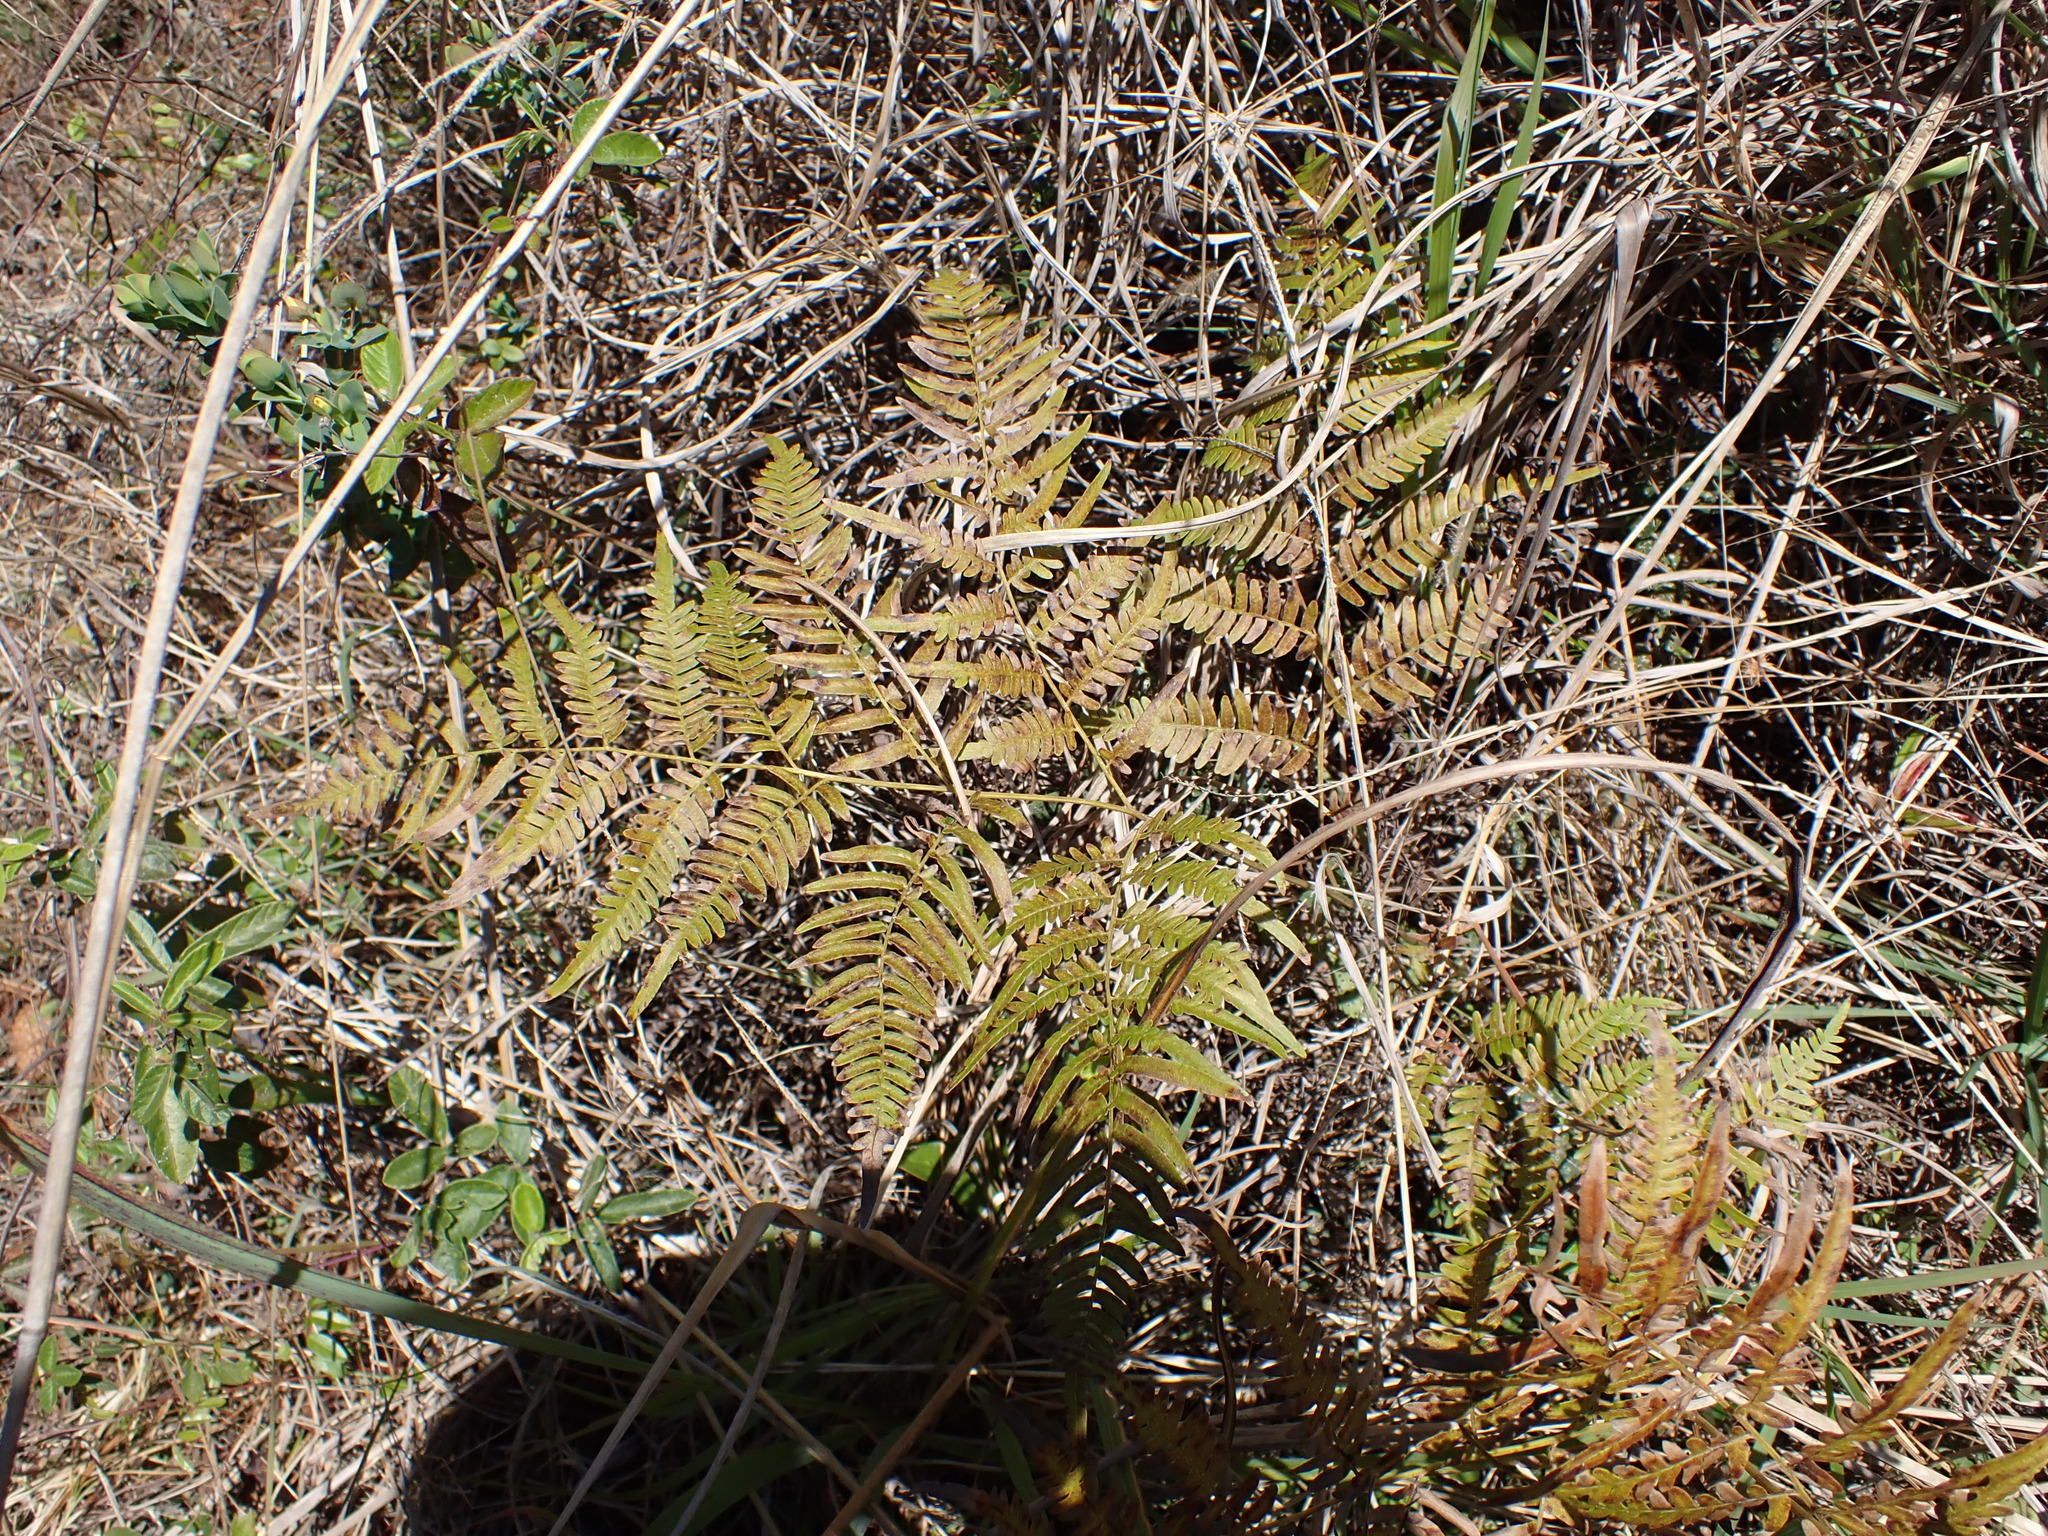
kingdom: Plantae
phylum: Tracheophyta
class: Polypodiopsida
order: Polypodiales
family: Dennstaedtiaceae
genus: Pteridium
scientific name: Pteridium
